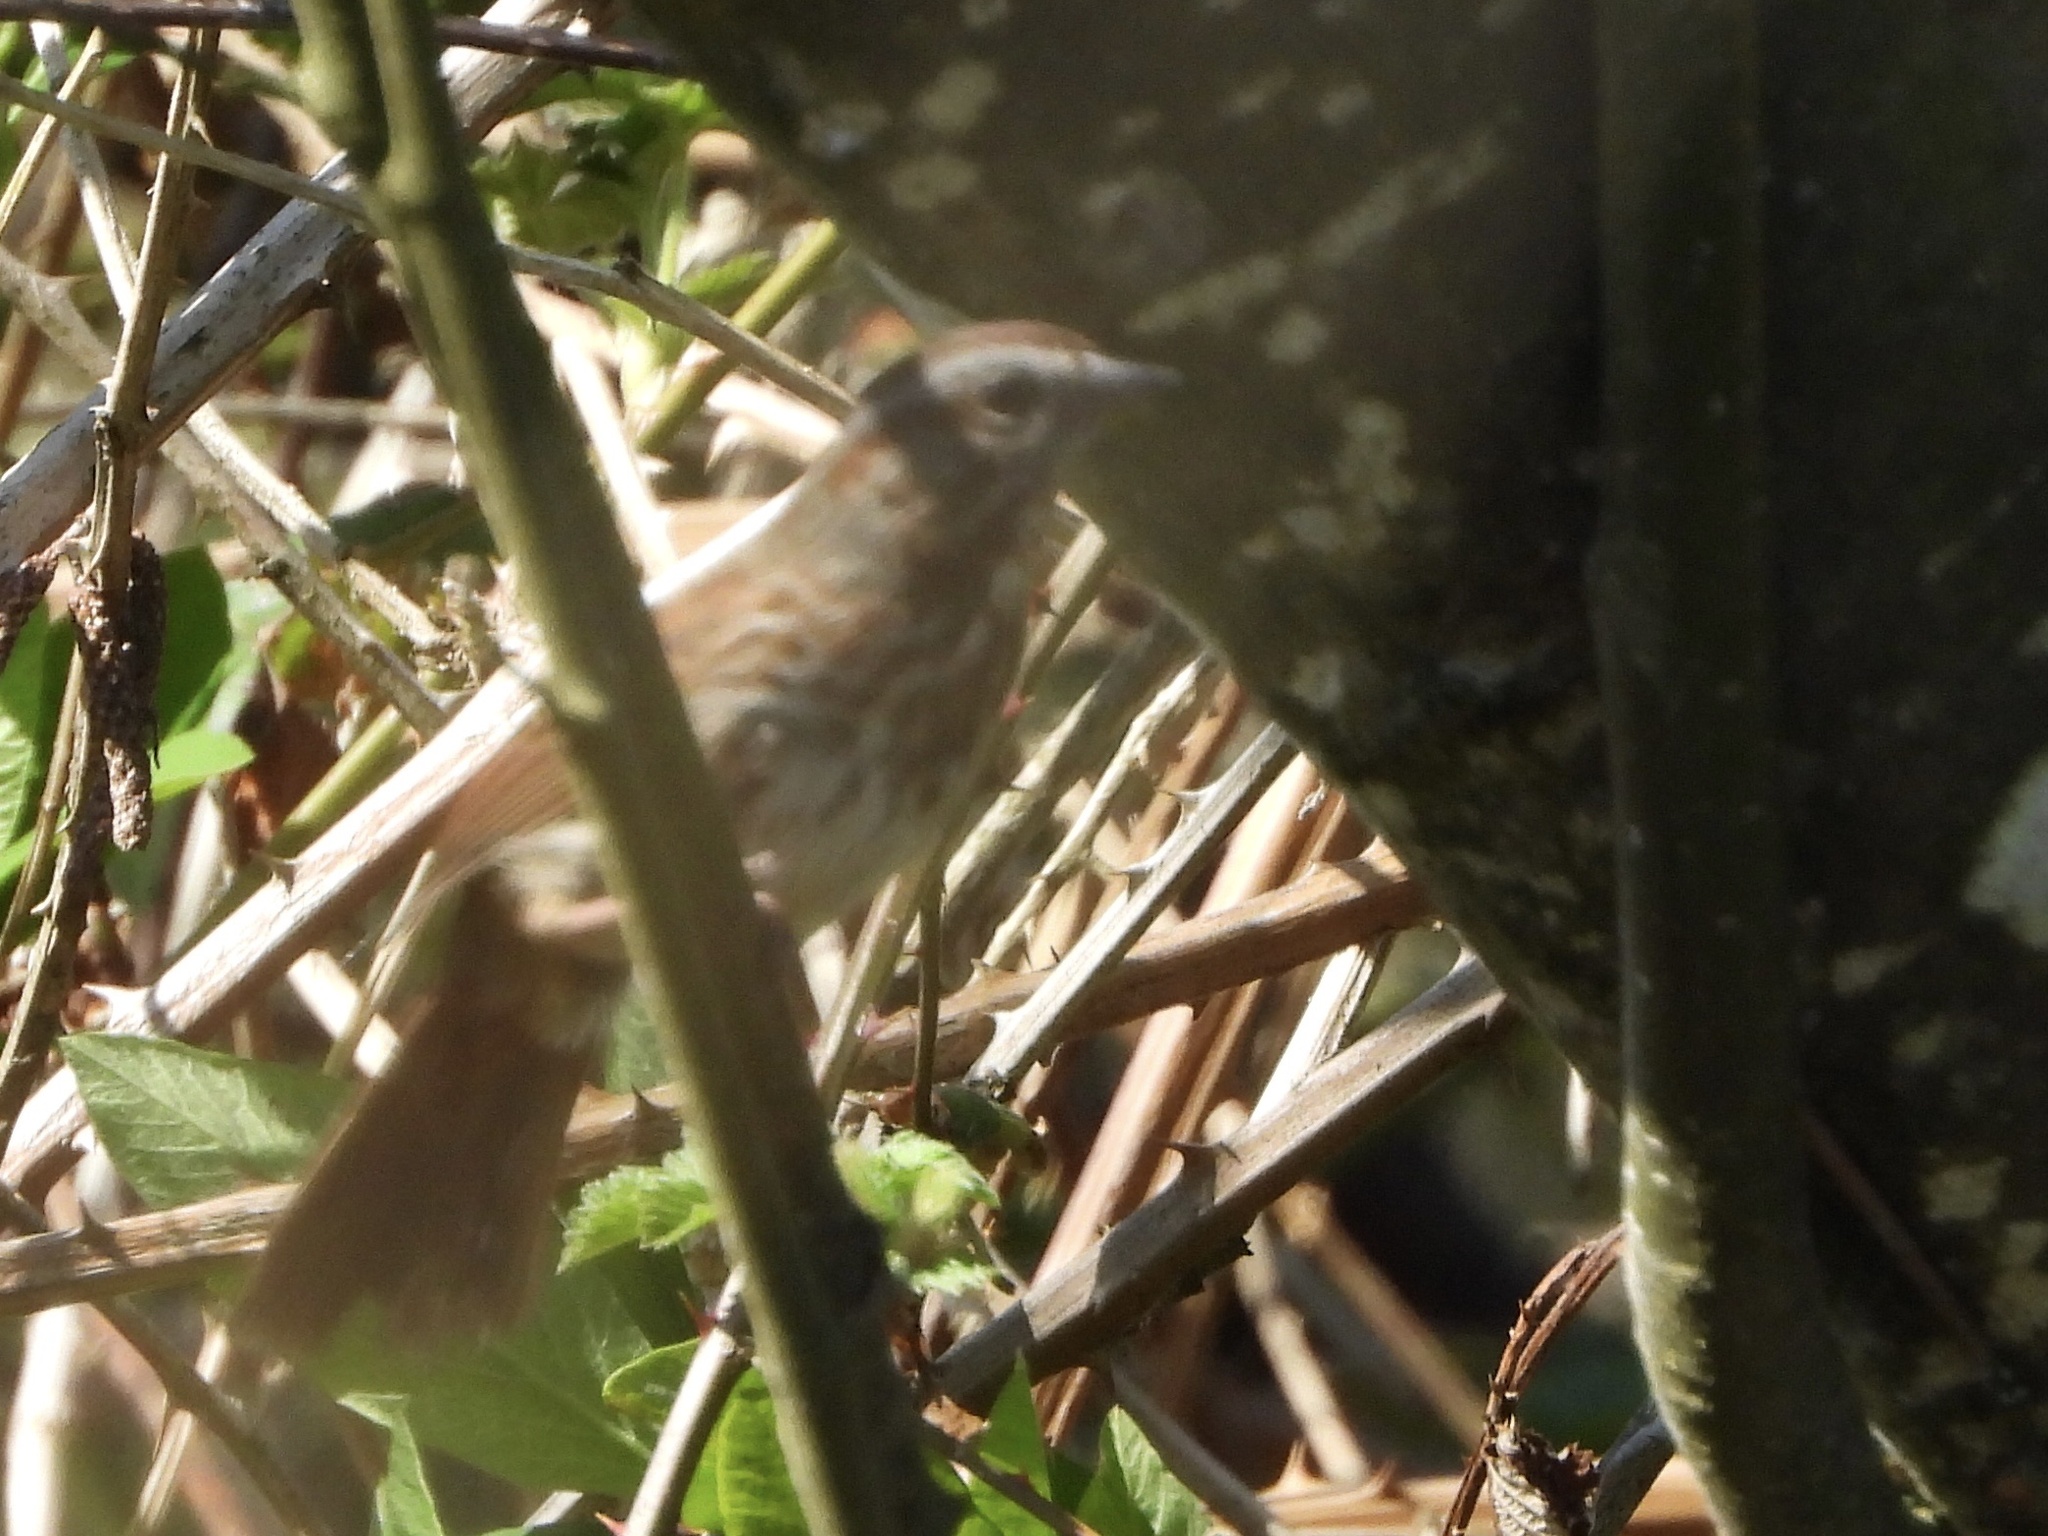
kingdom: Animalia
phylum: Chordata
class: Aves
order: Passeriformes
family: Passerellidae
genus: Melospiza
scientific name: Melospiza melodia
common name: Song sparrow
